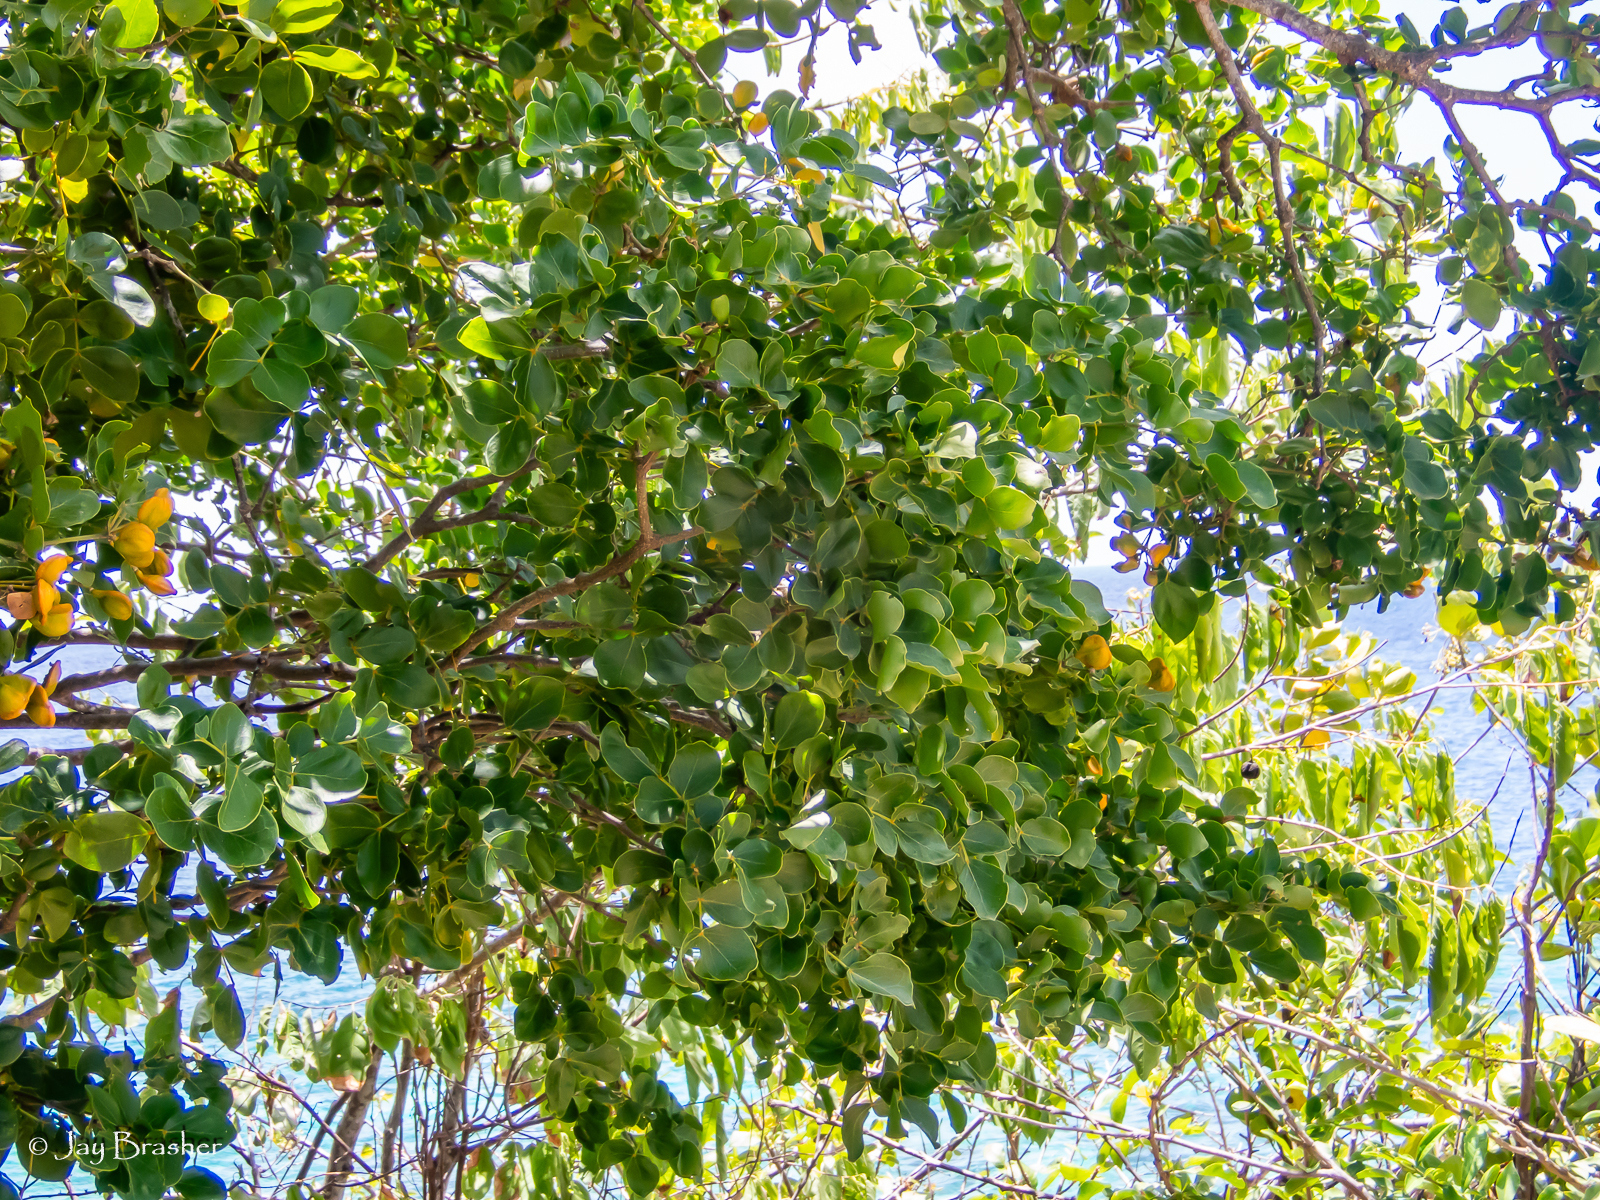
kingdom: Plantae
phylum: Tracheophyta
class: Magnoliopsida
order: Zygophyllales
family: Zygophyllaceae
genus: Guaiacum
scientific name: Guaiacum officinale
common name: Lignum vitae
